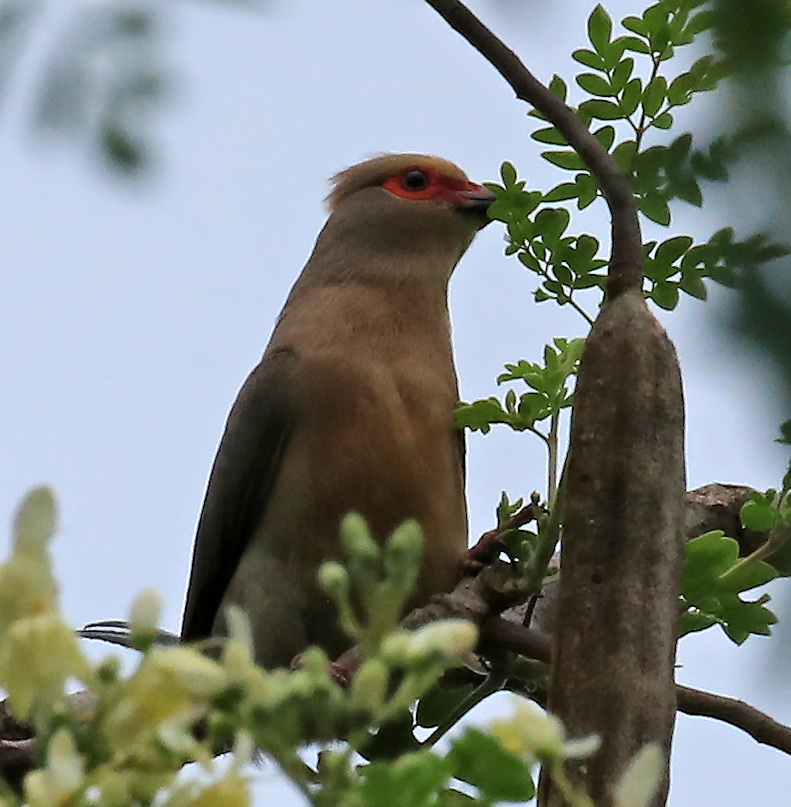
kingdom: Animalia
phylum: Chordata
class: Aves
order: Coliiformes
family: Coliidae
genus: Urocolius
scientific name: Urocolius indicus
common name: Red-faced mousebird
